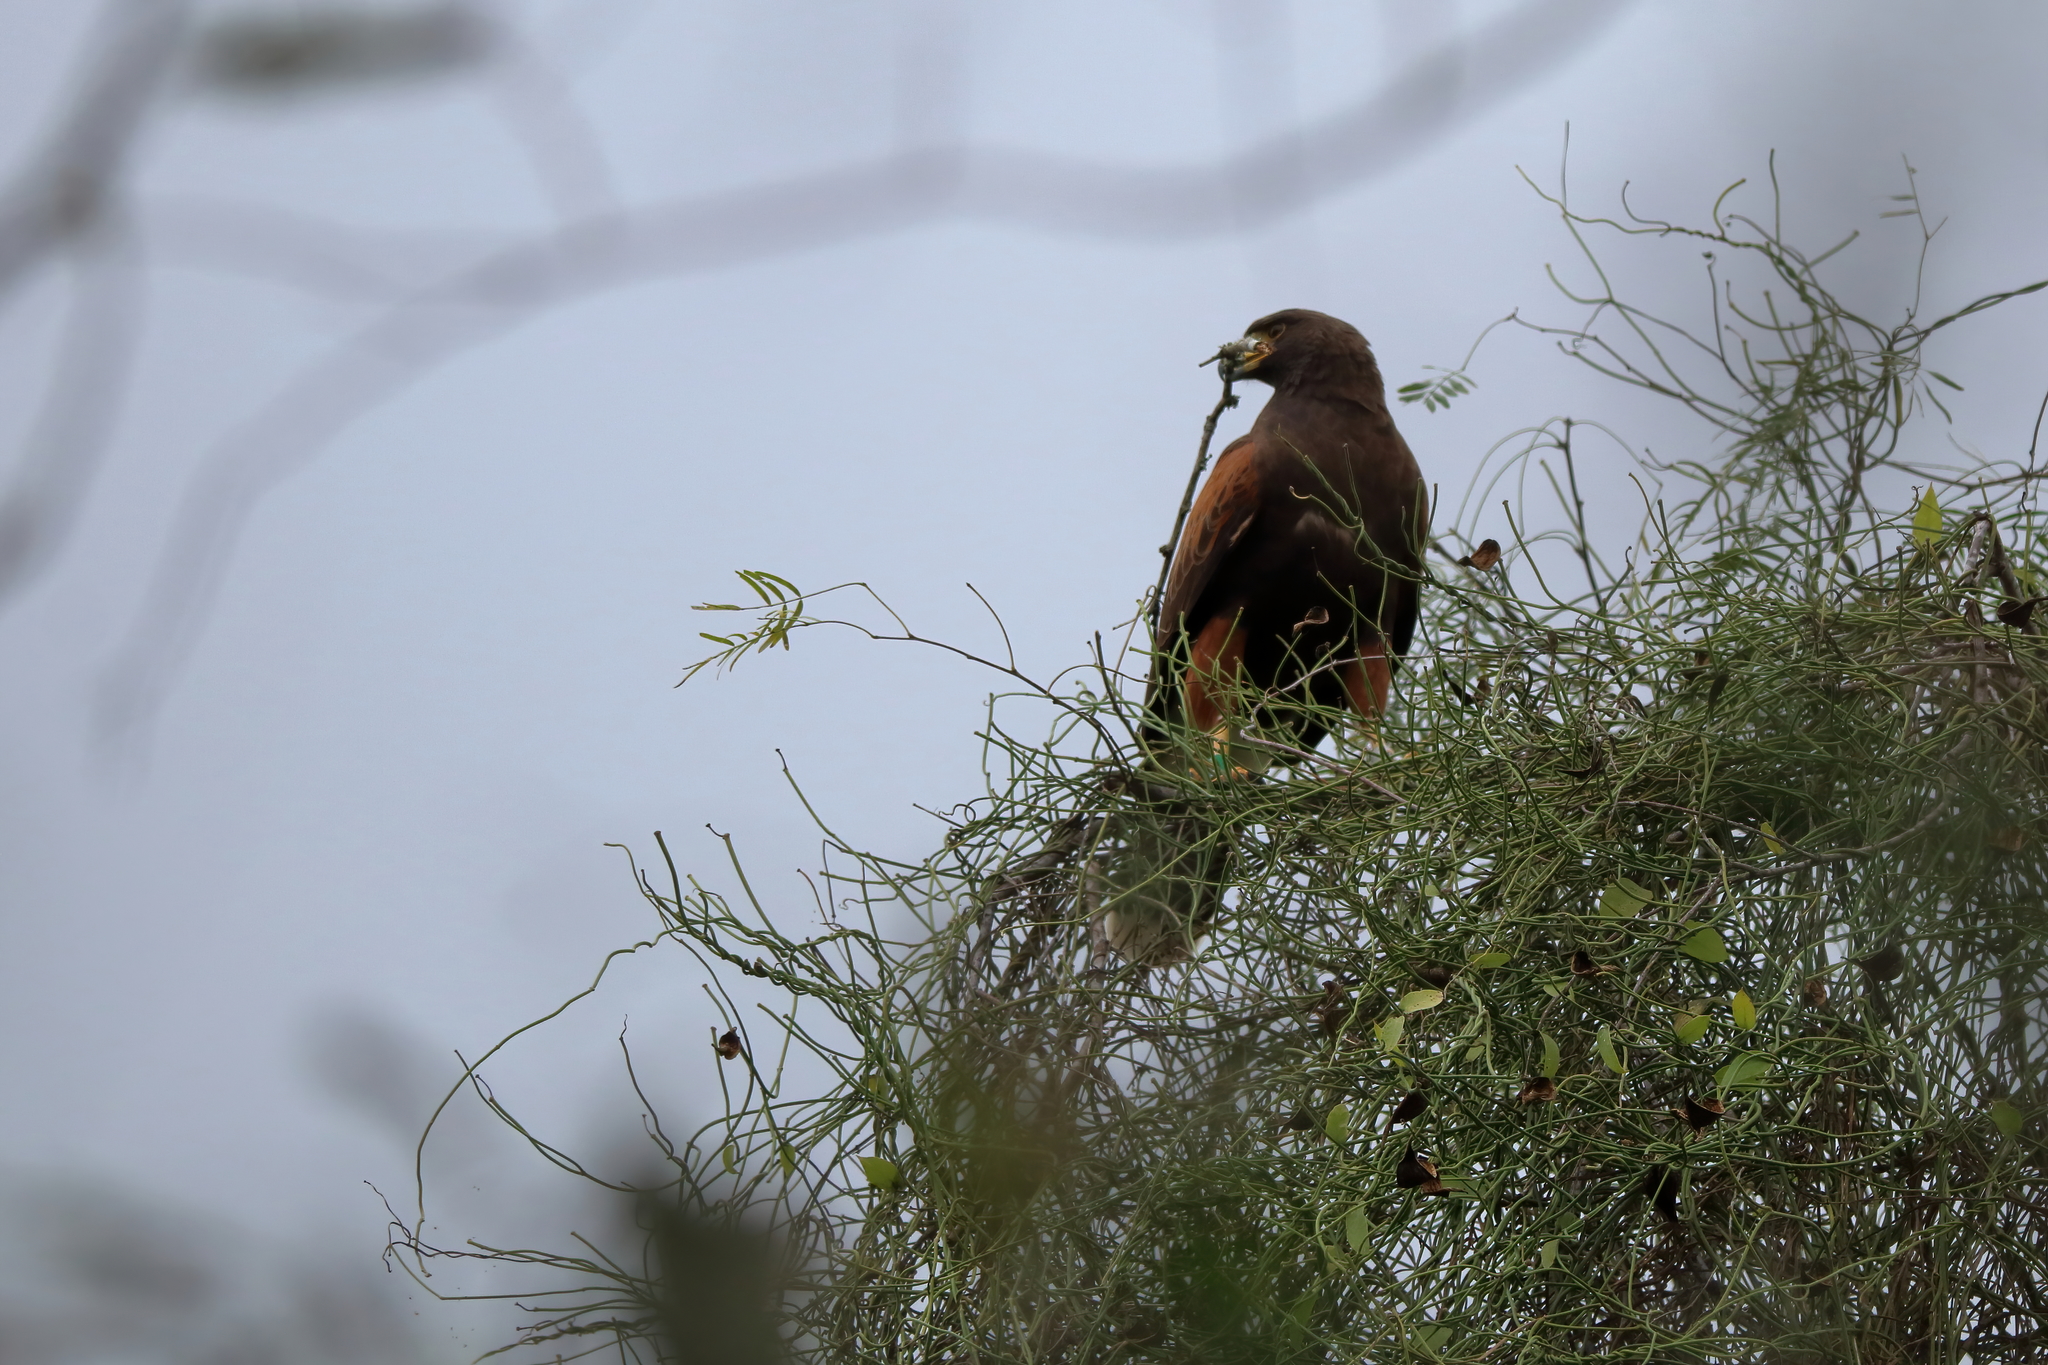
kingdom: Animalia
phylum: Chordata
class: Aves
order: Accipitriformes
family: Accipitridae
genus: Parabuteo
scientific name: Parabuteo unicinctus
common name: Harris's hawk
